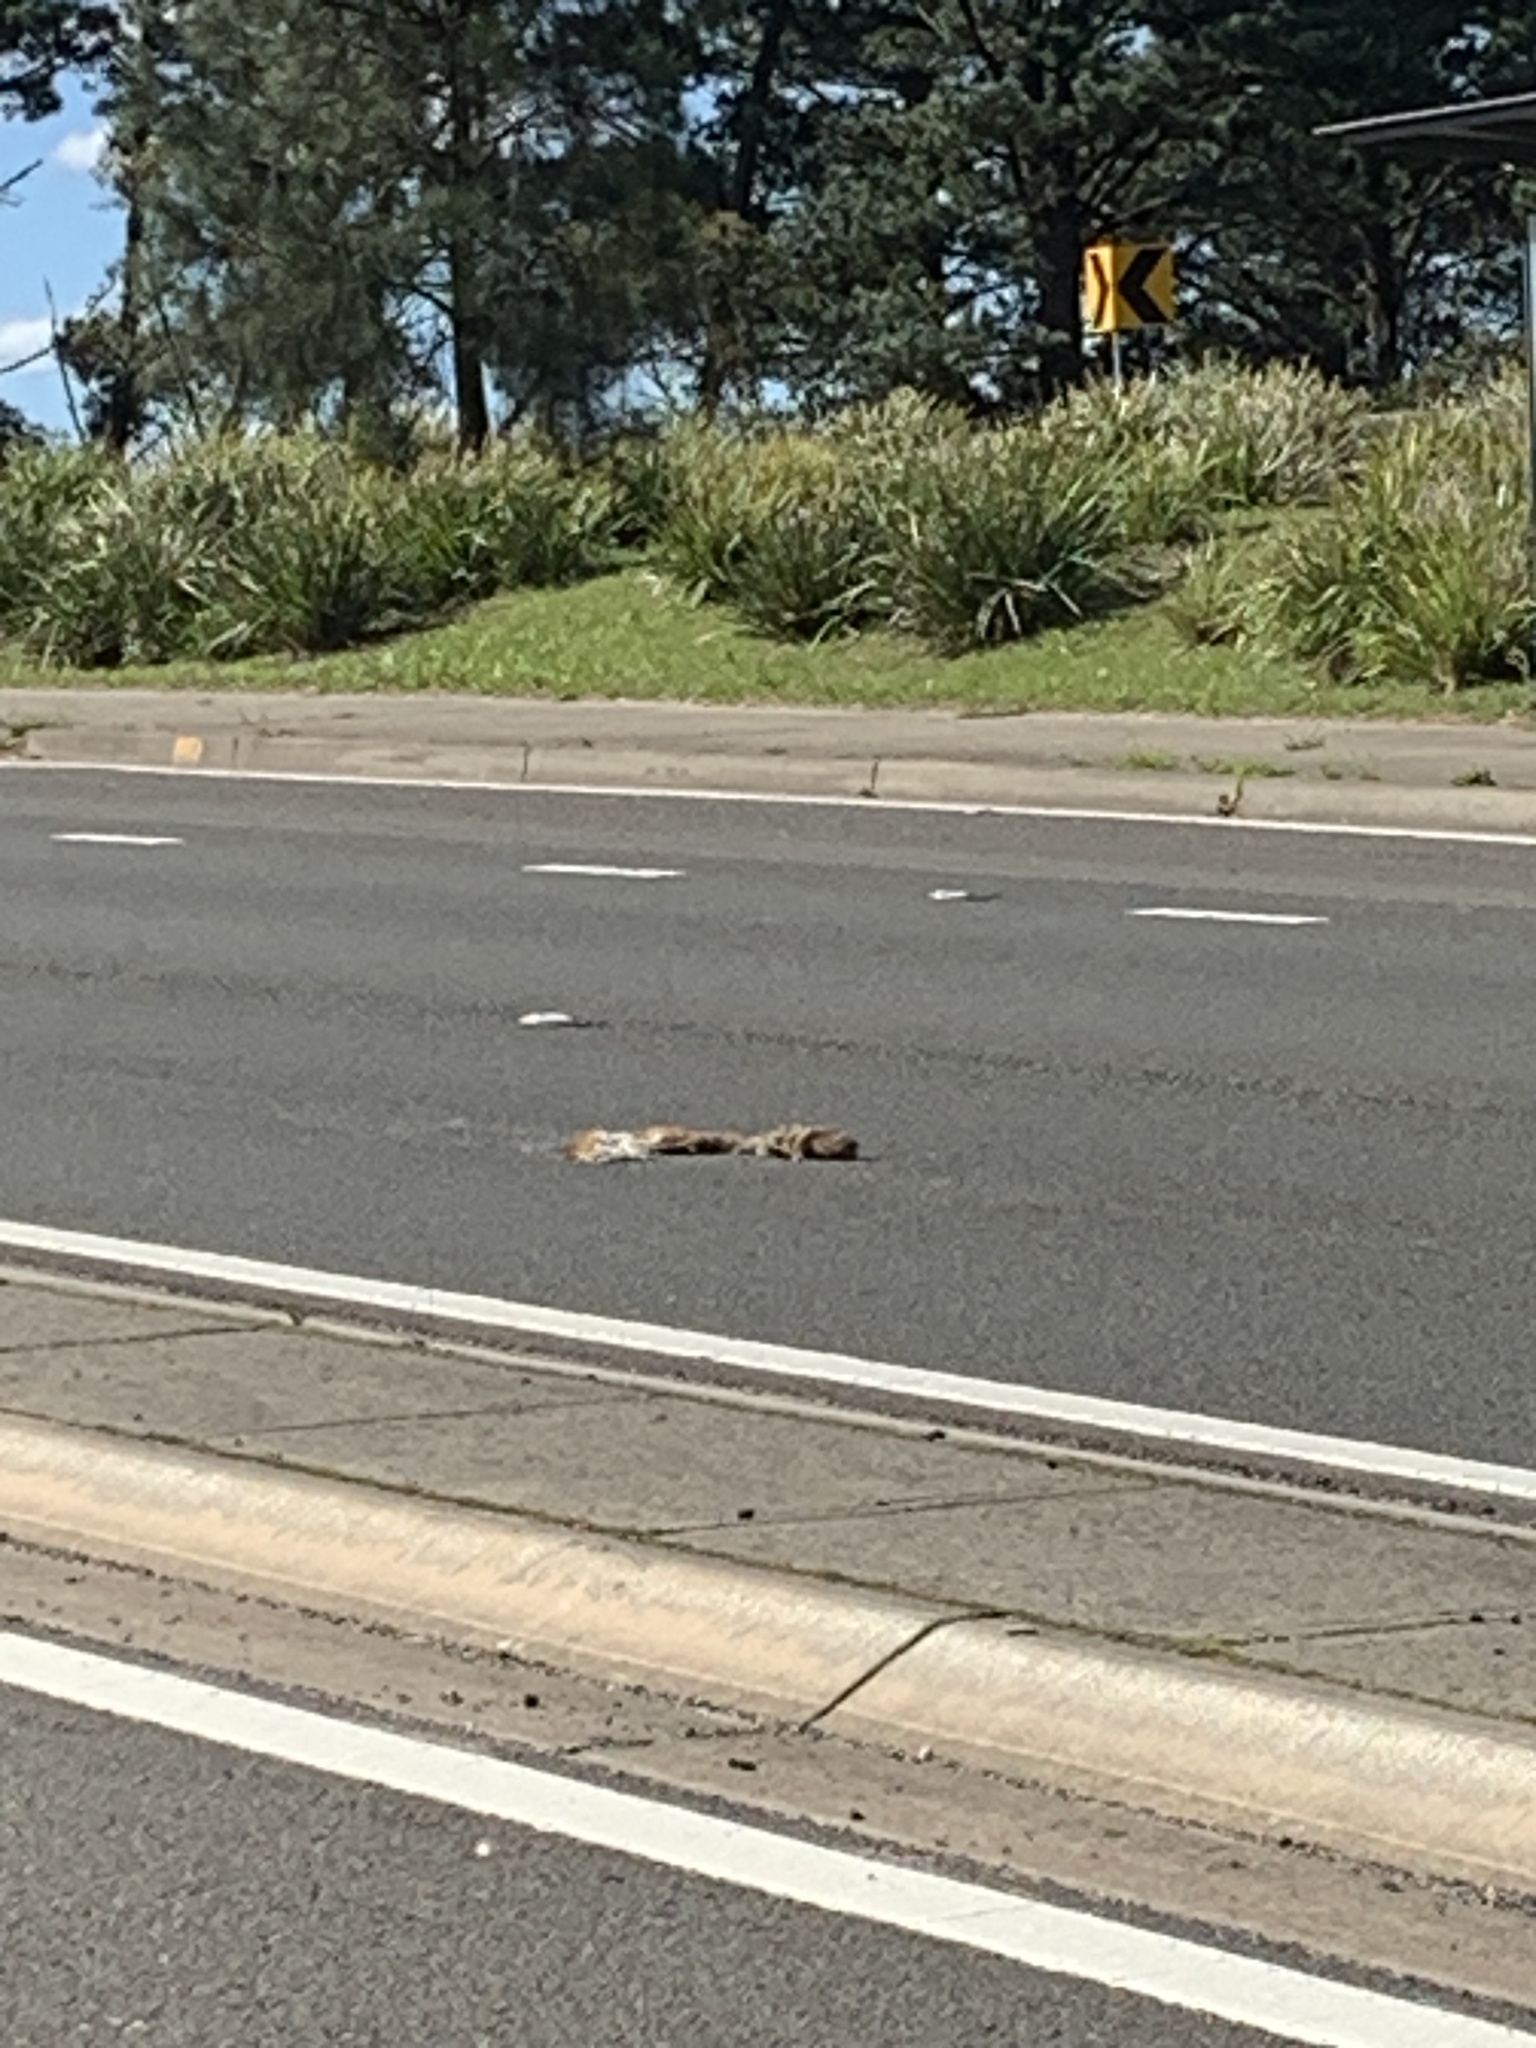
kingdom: Animalia
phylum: Chordata
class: Mammalia
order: Carnivora
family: Canidae
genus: Vulpes
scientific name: Vulpes vulpes
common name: Red fox
